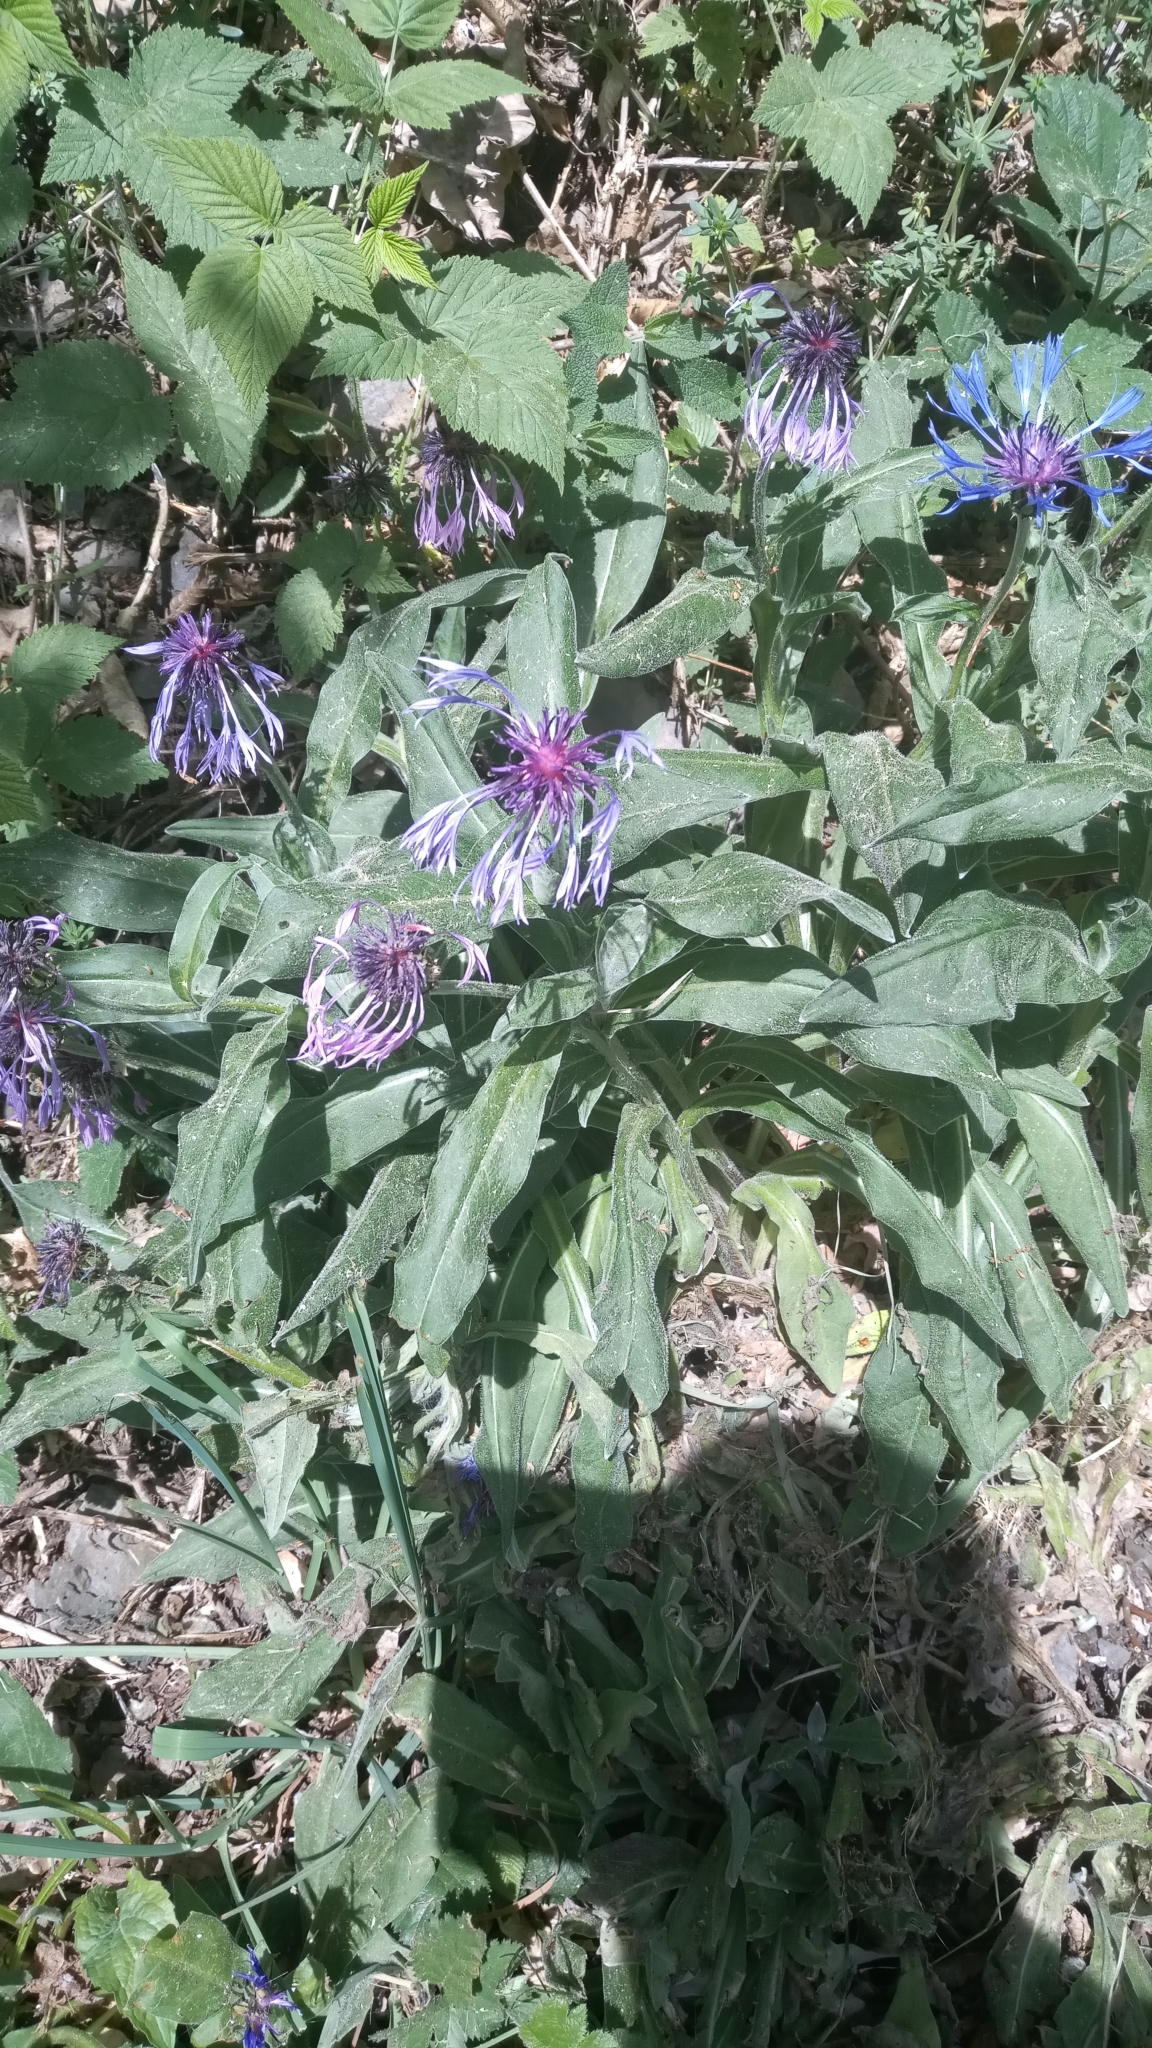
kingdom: Plantae
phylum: Tracheophyta
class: Magnoliopsida
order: Asterales
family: Asteraceae
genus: Centaurea
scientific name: Centaurea montana
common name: Perennial cornflower
